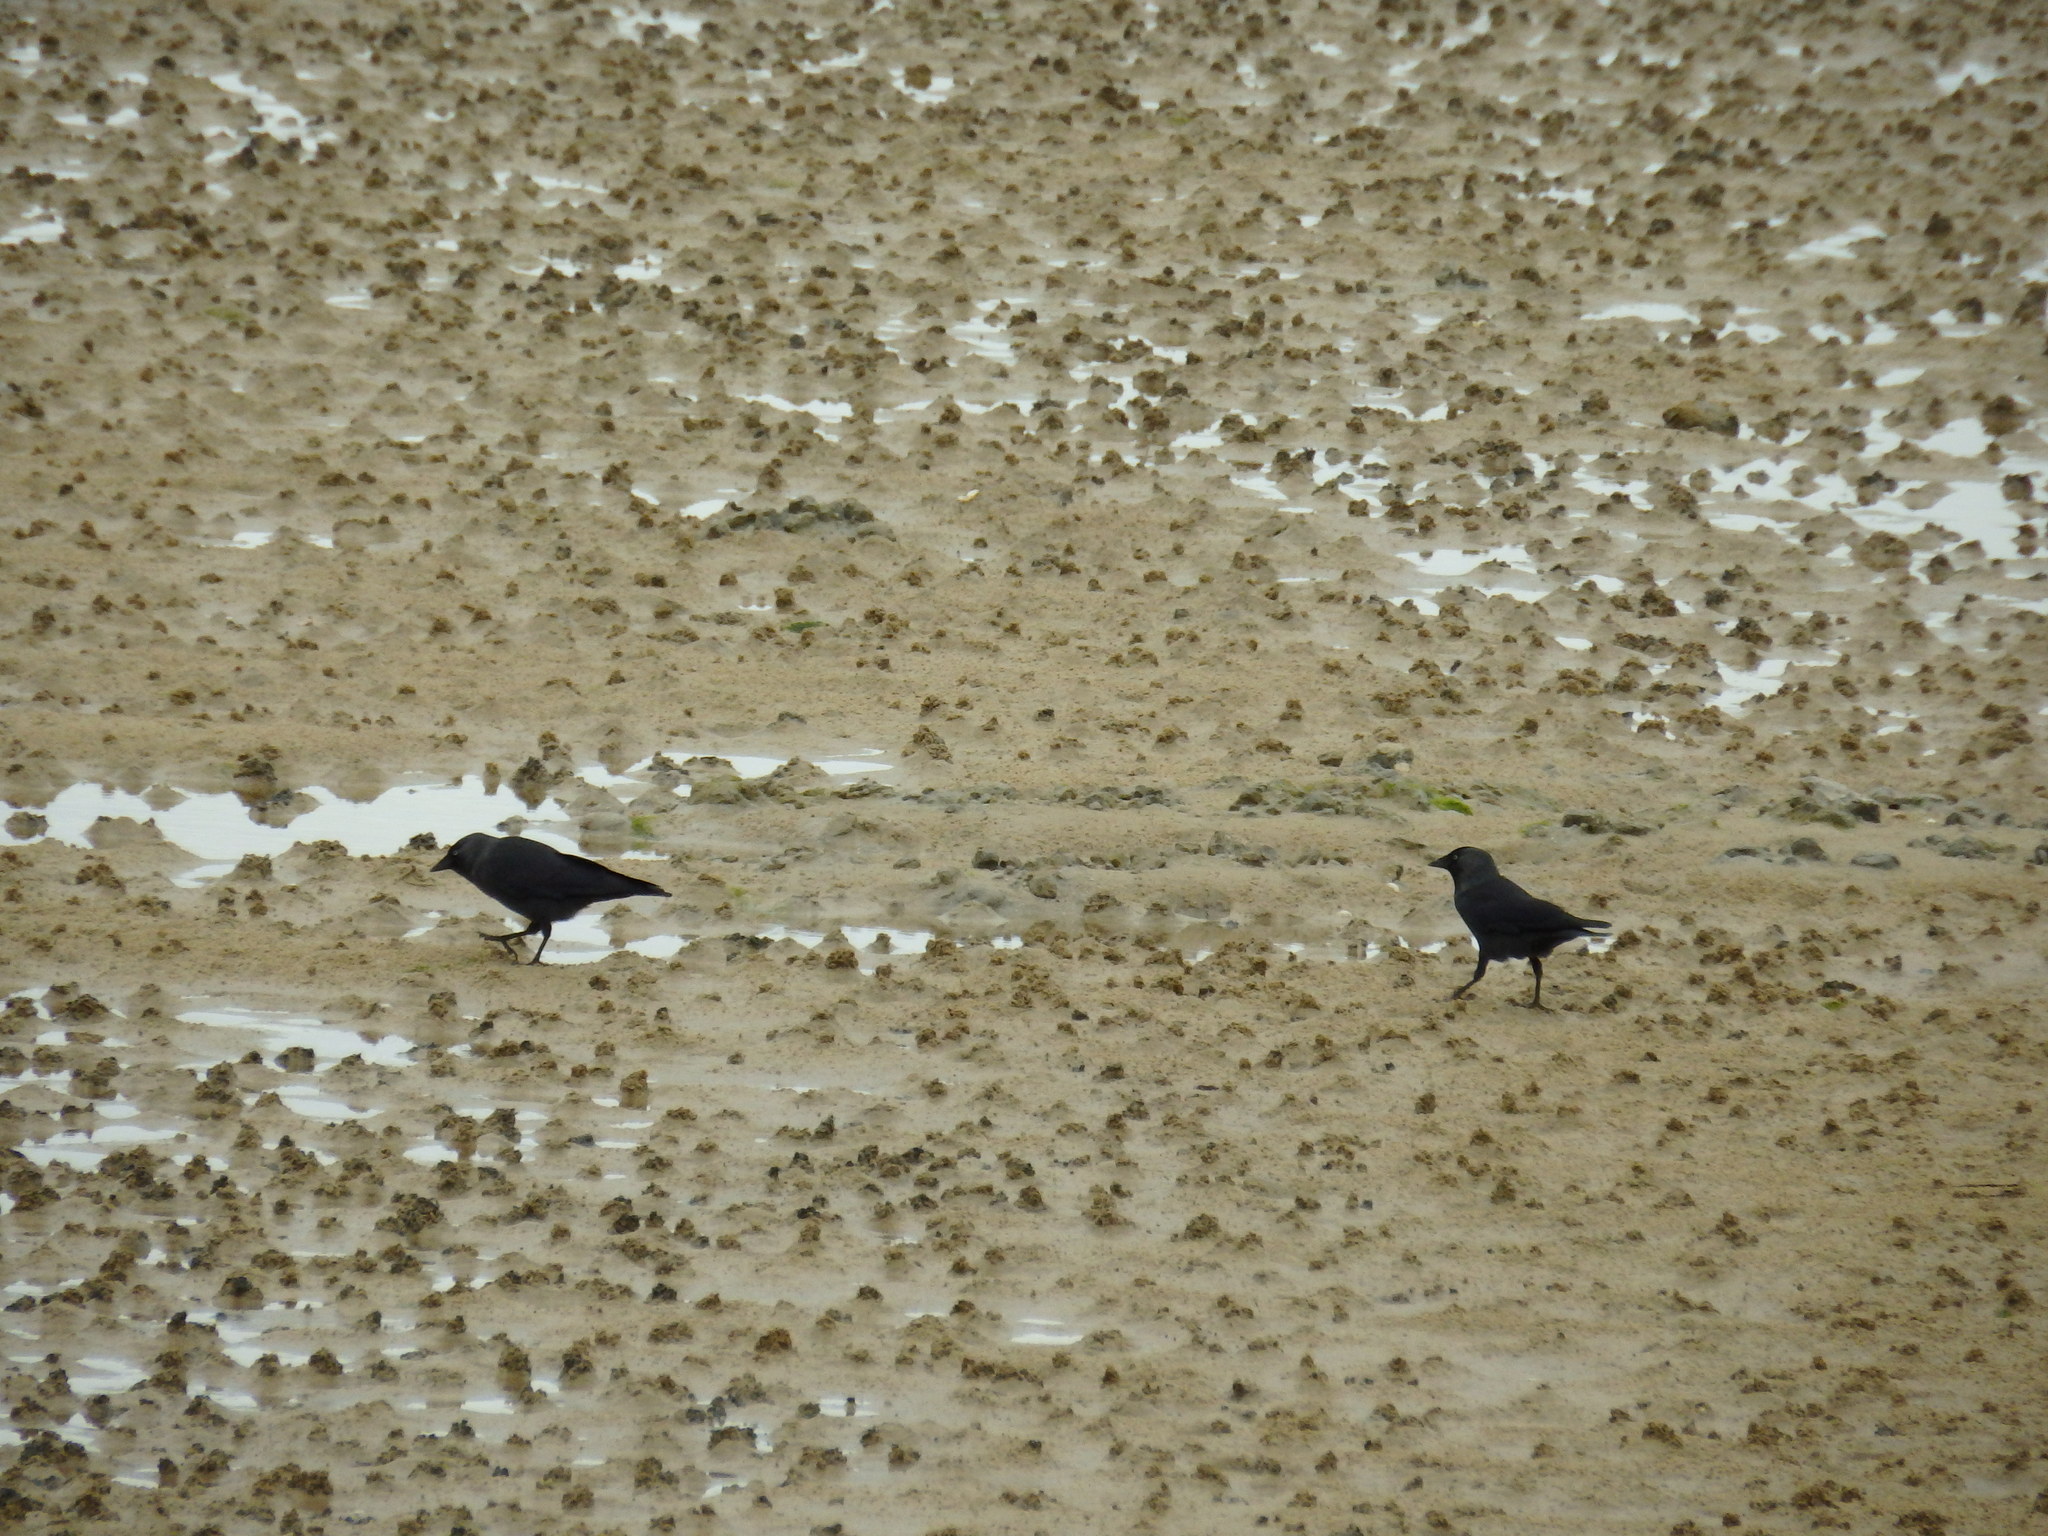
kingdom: Animalia
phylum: Chordata
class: Aves
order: Passeriformes
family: Corvidae
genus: Coloeus
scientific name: Coloeus monedula
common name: Western jackdaw
